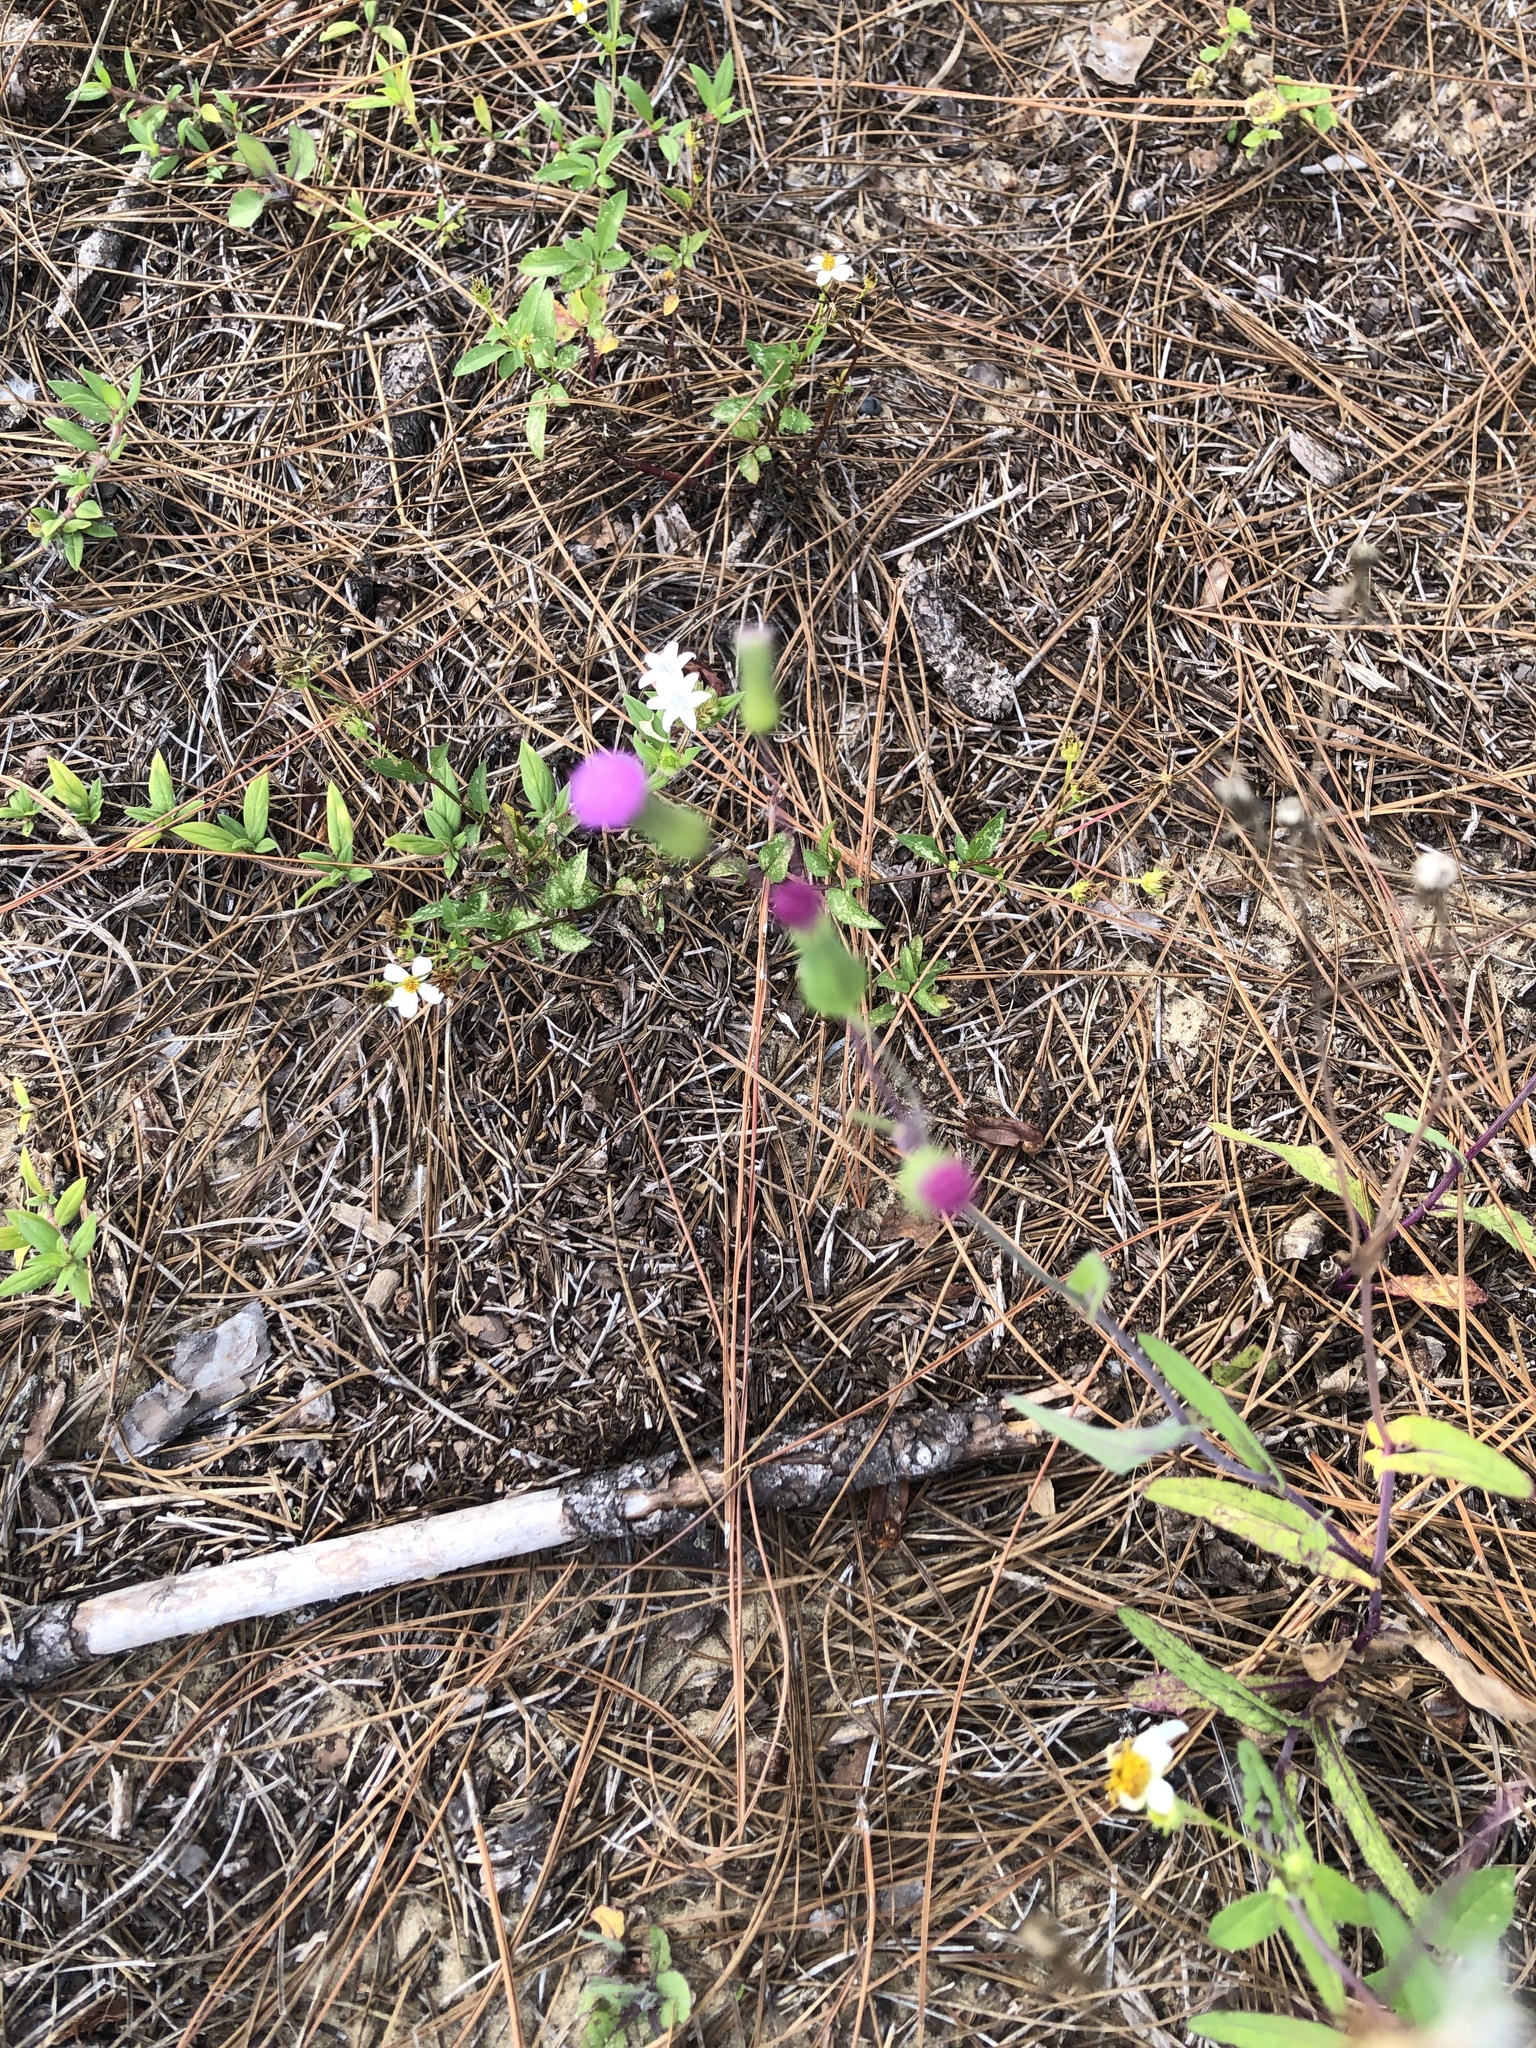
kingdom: Plantae
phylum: Tracheophyta
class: Magnoliopsida
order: Asterales
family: Asteraceae
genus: Emilia
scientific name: Emilia sonchifolia
